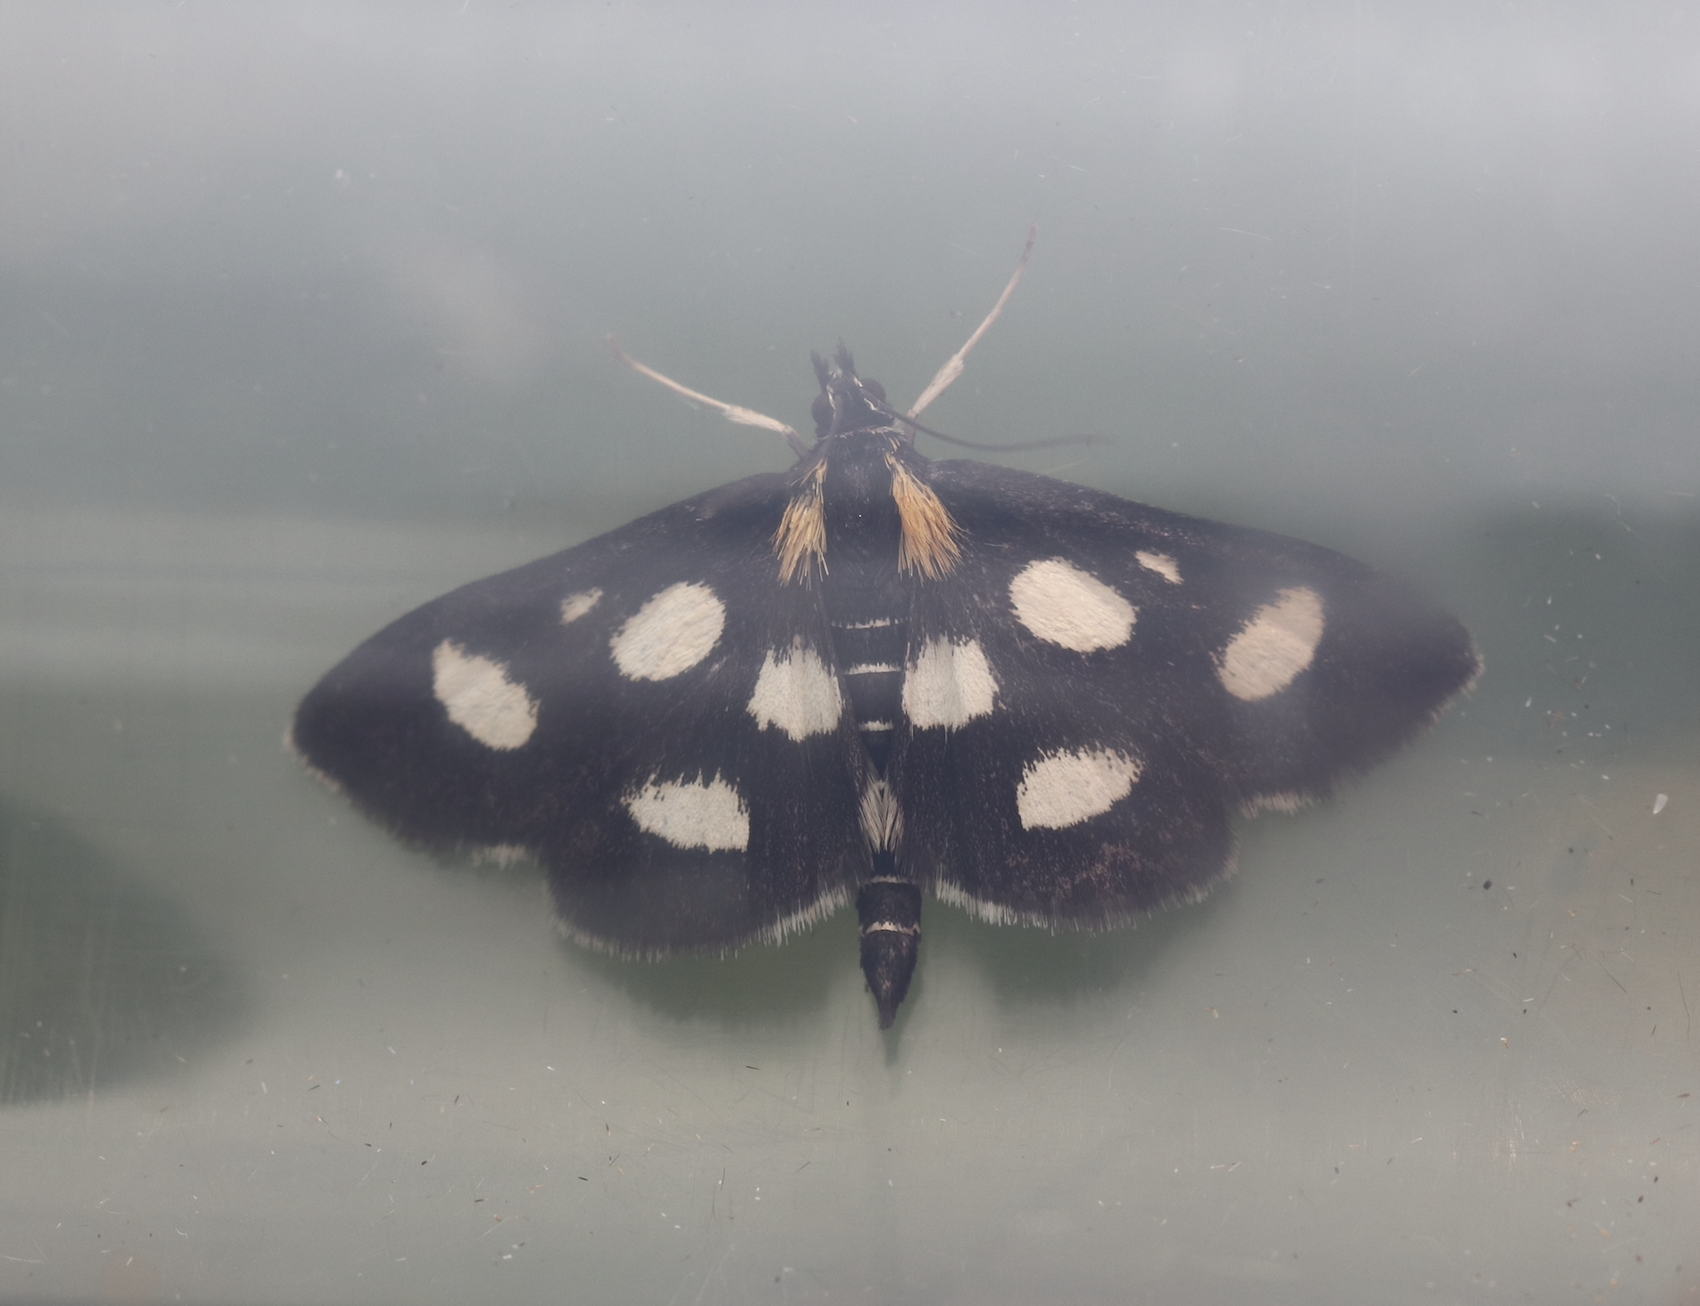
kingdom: Animalia
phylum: Arthropoda
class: Insecta
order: Lepidoptera
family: Crambidae
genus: Anania
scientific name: Anania funebris
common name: White-spotted sable moth
